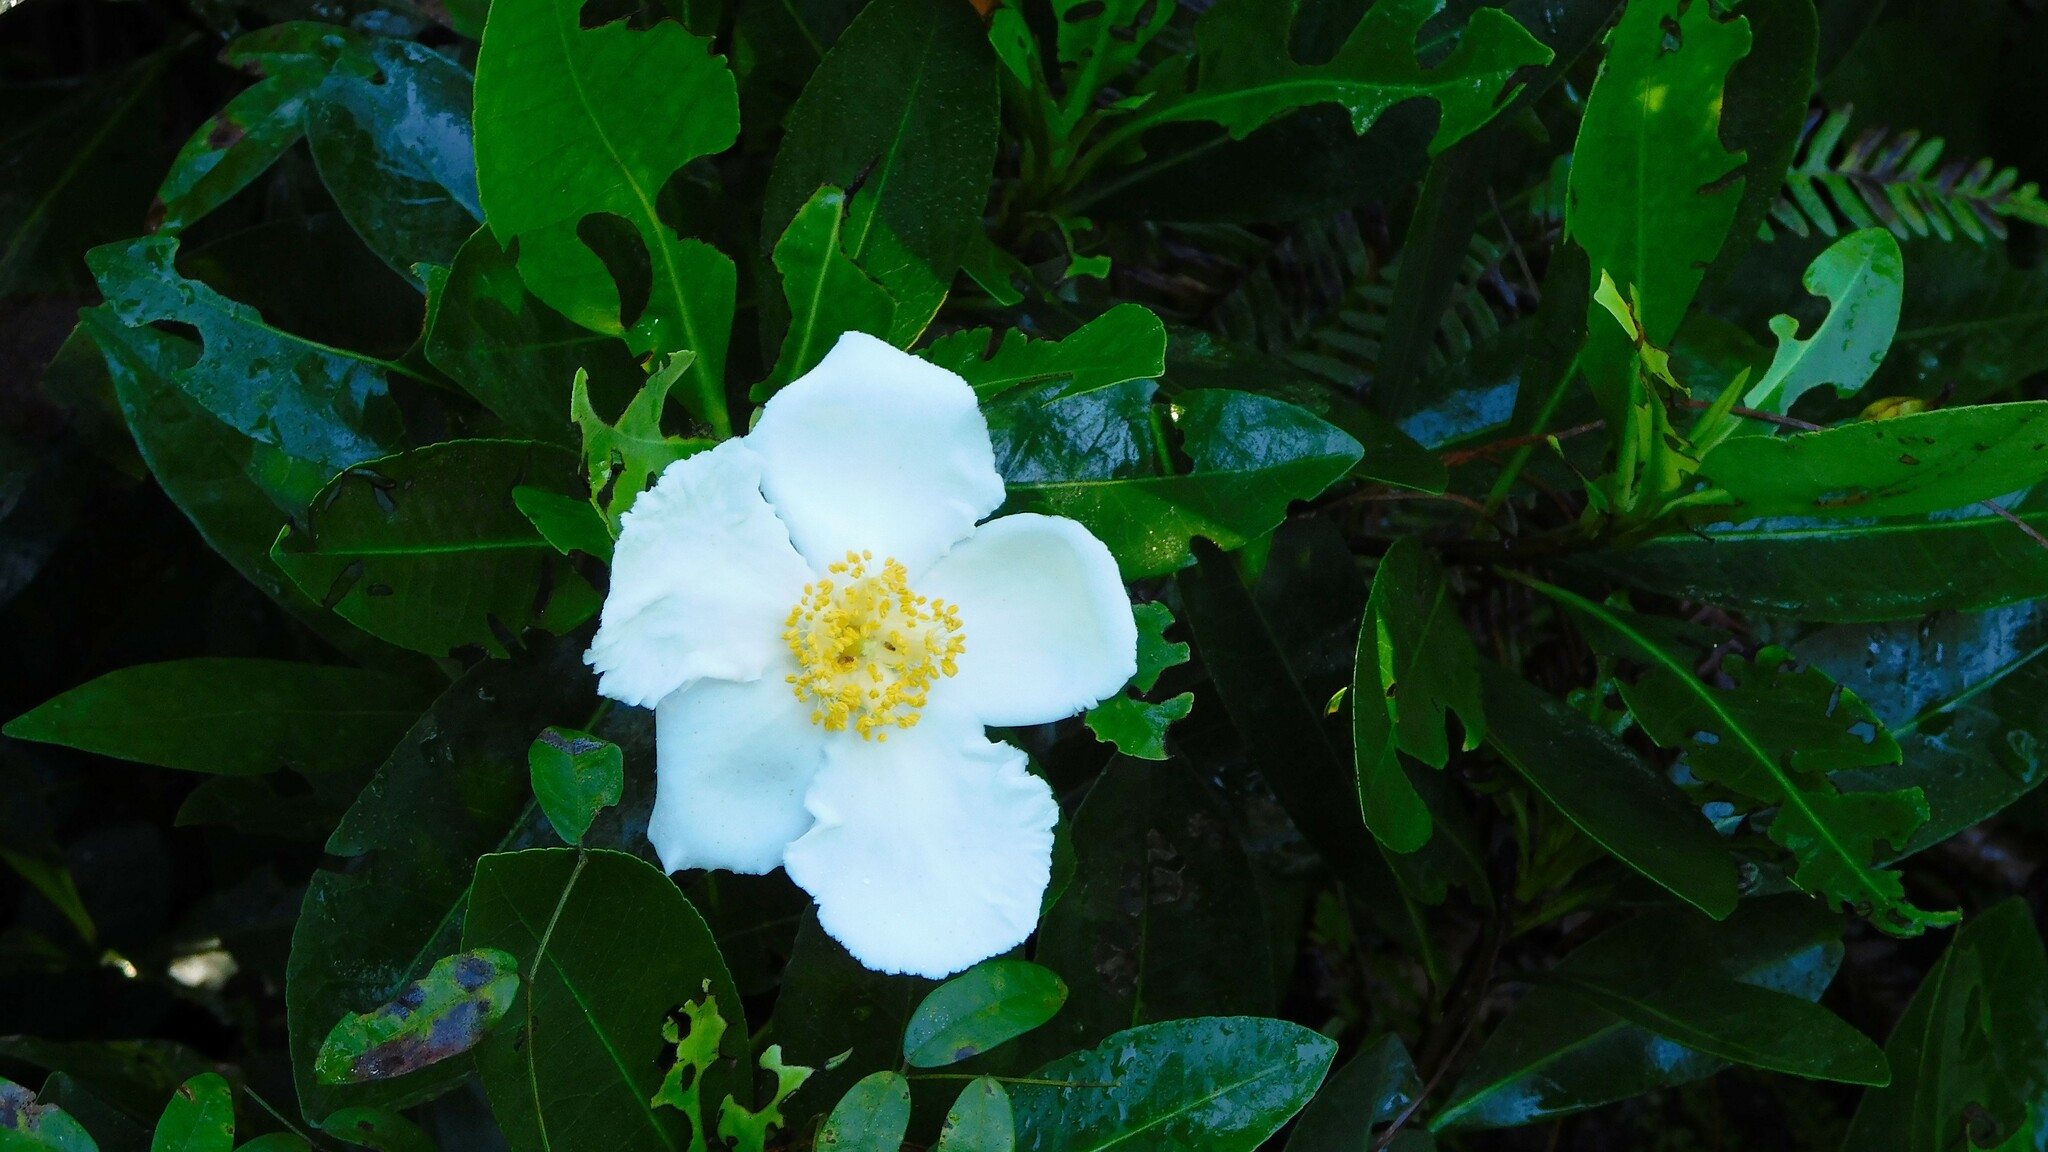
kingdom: Plantae
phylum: Tracheophyta
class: Magnoliopsida
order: Ericales
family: Theaceae
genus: Gordonia
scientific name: Gordonia lasianthus
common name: Loblolly bay
